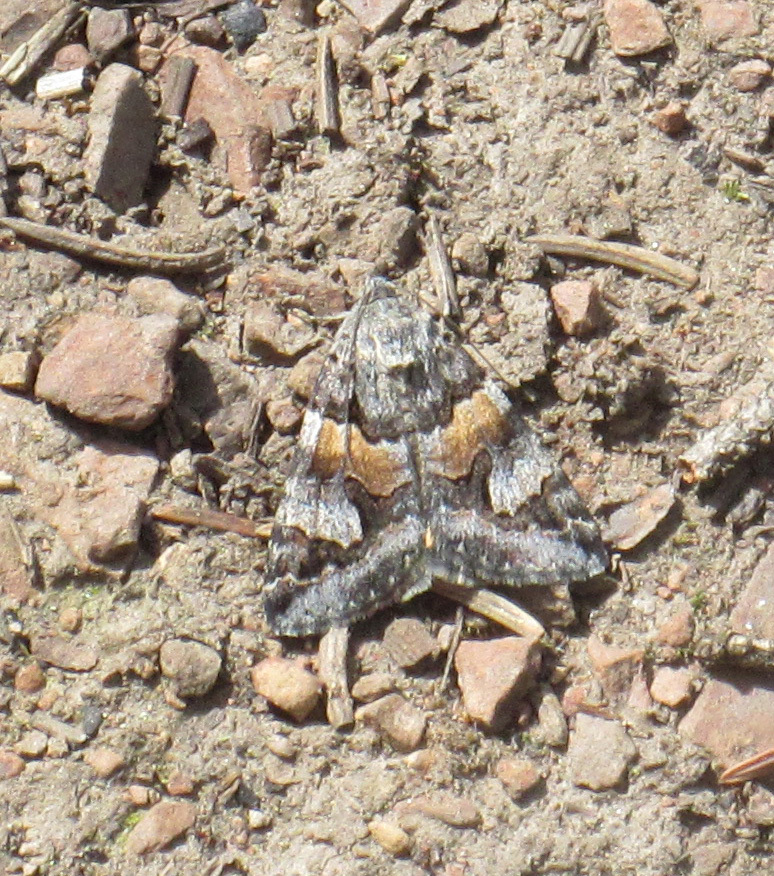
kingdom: Animalia
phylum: Arthropoda
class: Insecta
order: Lepidoptera
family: Erebidae
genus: Drasteria
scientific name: Drasteria hudsonica
